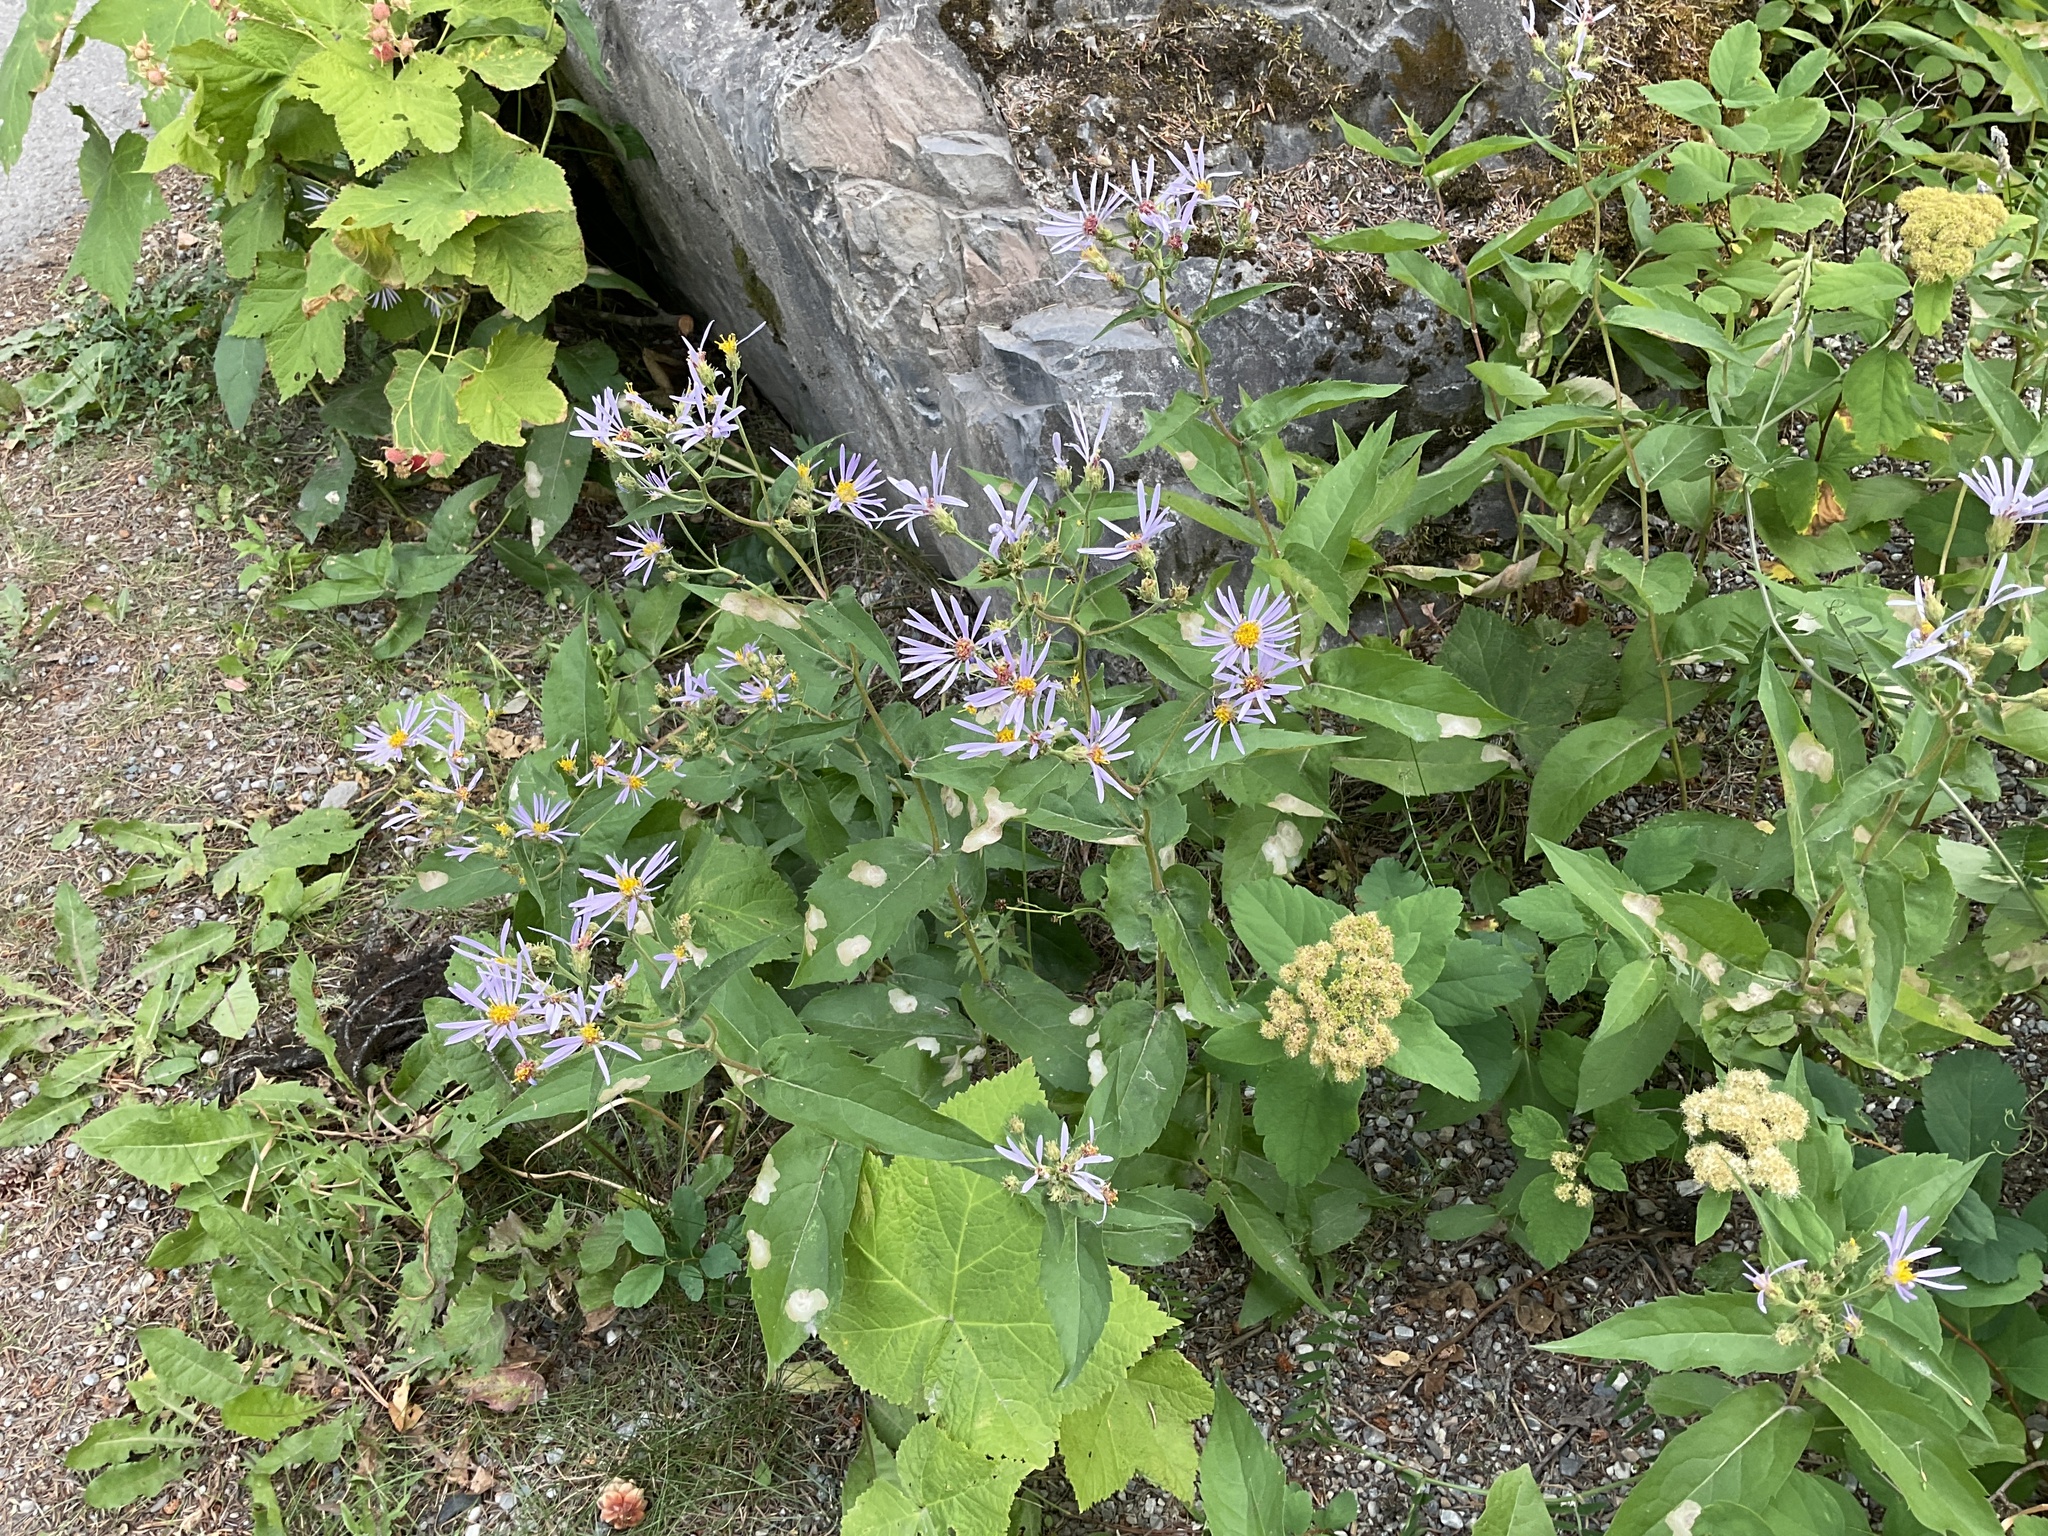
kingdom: Plantae
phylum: Tracheophyta
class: Magnoliopsida
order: Asterales
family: Asteraceae
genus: Eurybia
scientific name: Eurybia conspicua
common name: Showy aster
